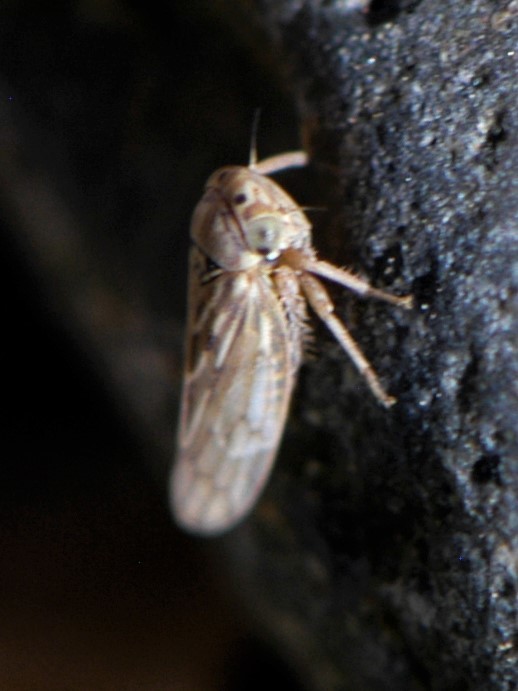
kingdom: Animalia
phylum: Arthropoda
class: Insecta
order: Hemiptera
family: Cicadellidae
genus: Ceratagallia
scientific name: Ceratagallia
